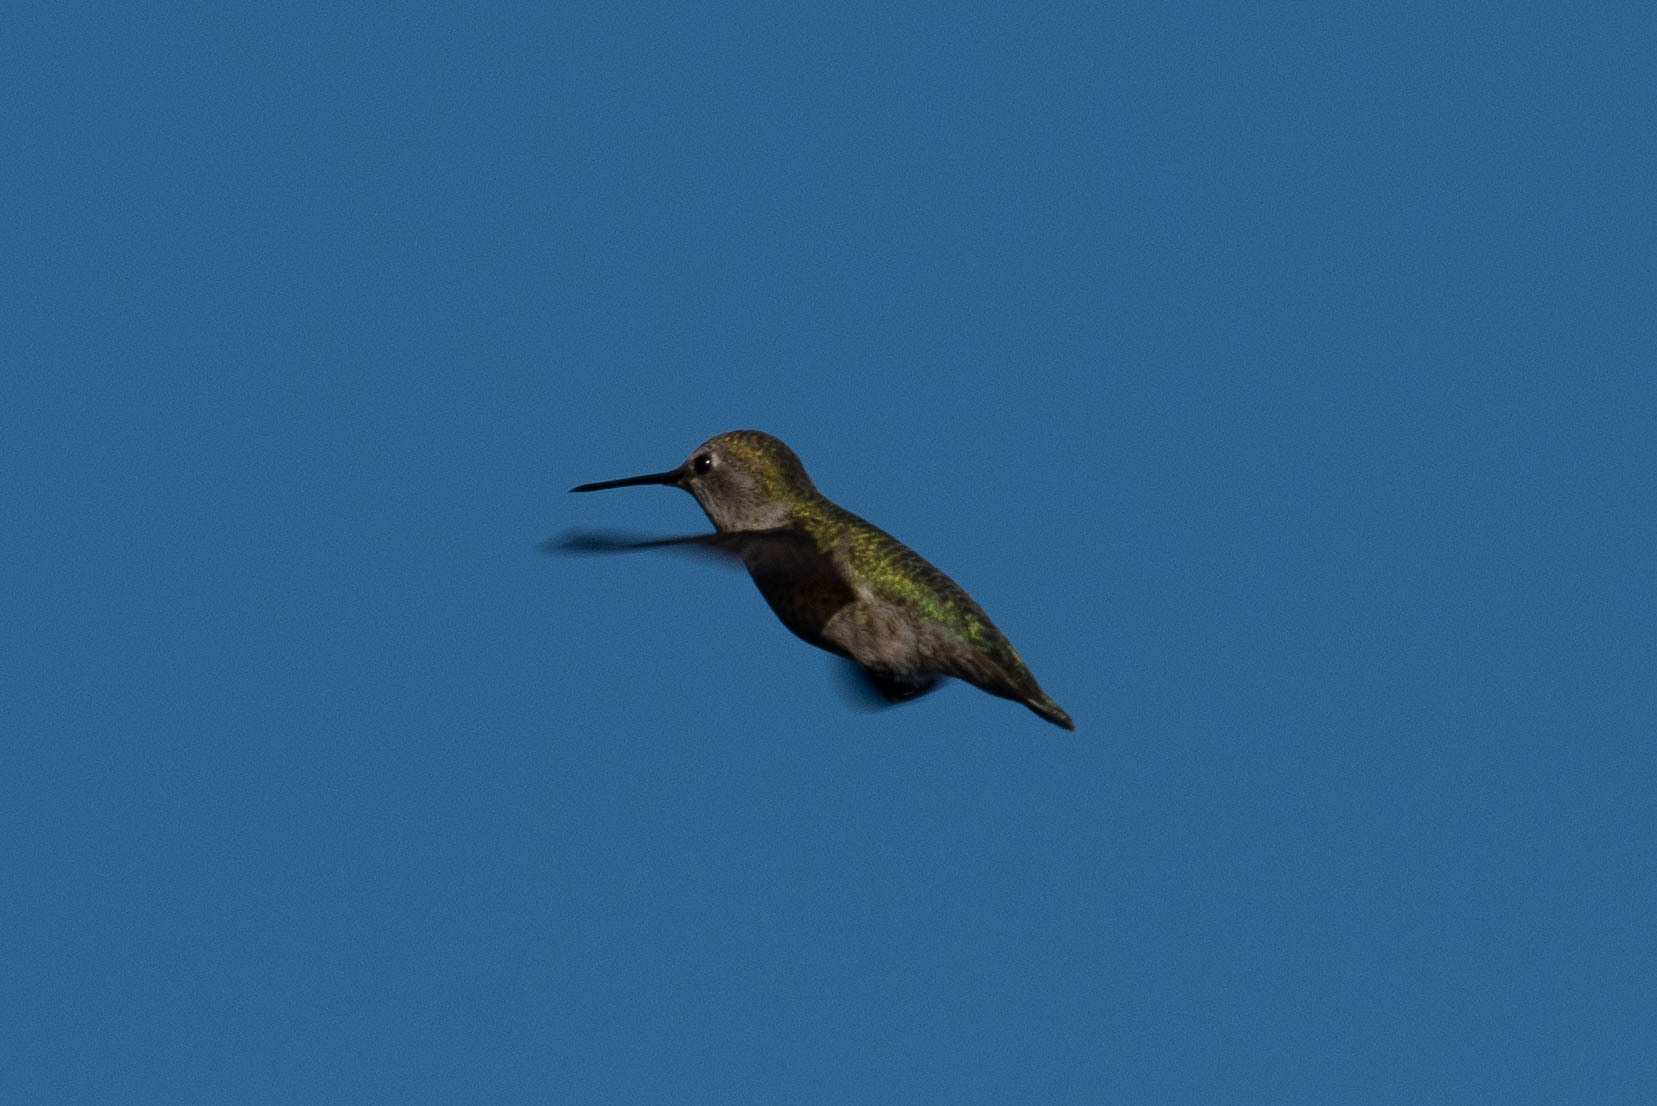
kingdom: Animalia
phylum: Chordata
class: Aves
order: Apodiformes
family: Trochilidae
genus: Calypte
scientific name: Calypte anna
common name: Anna's hummingbird
